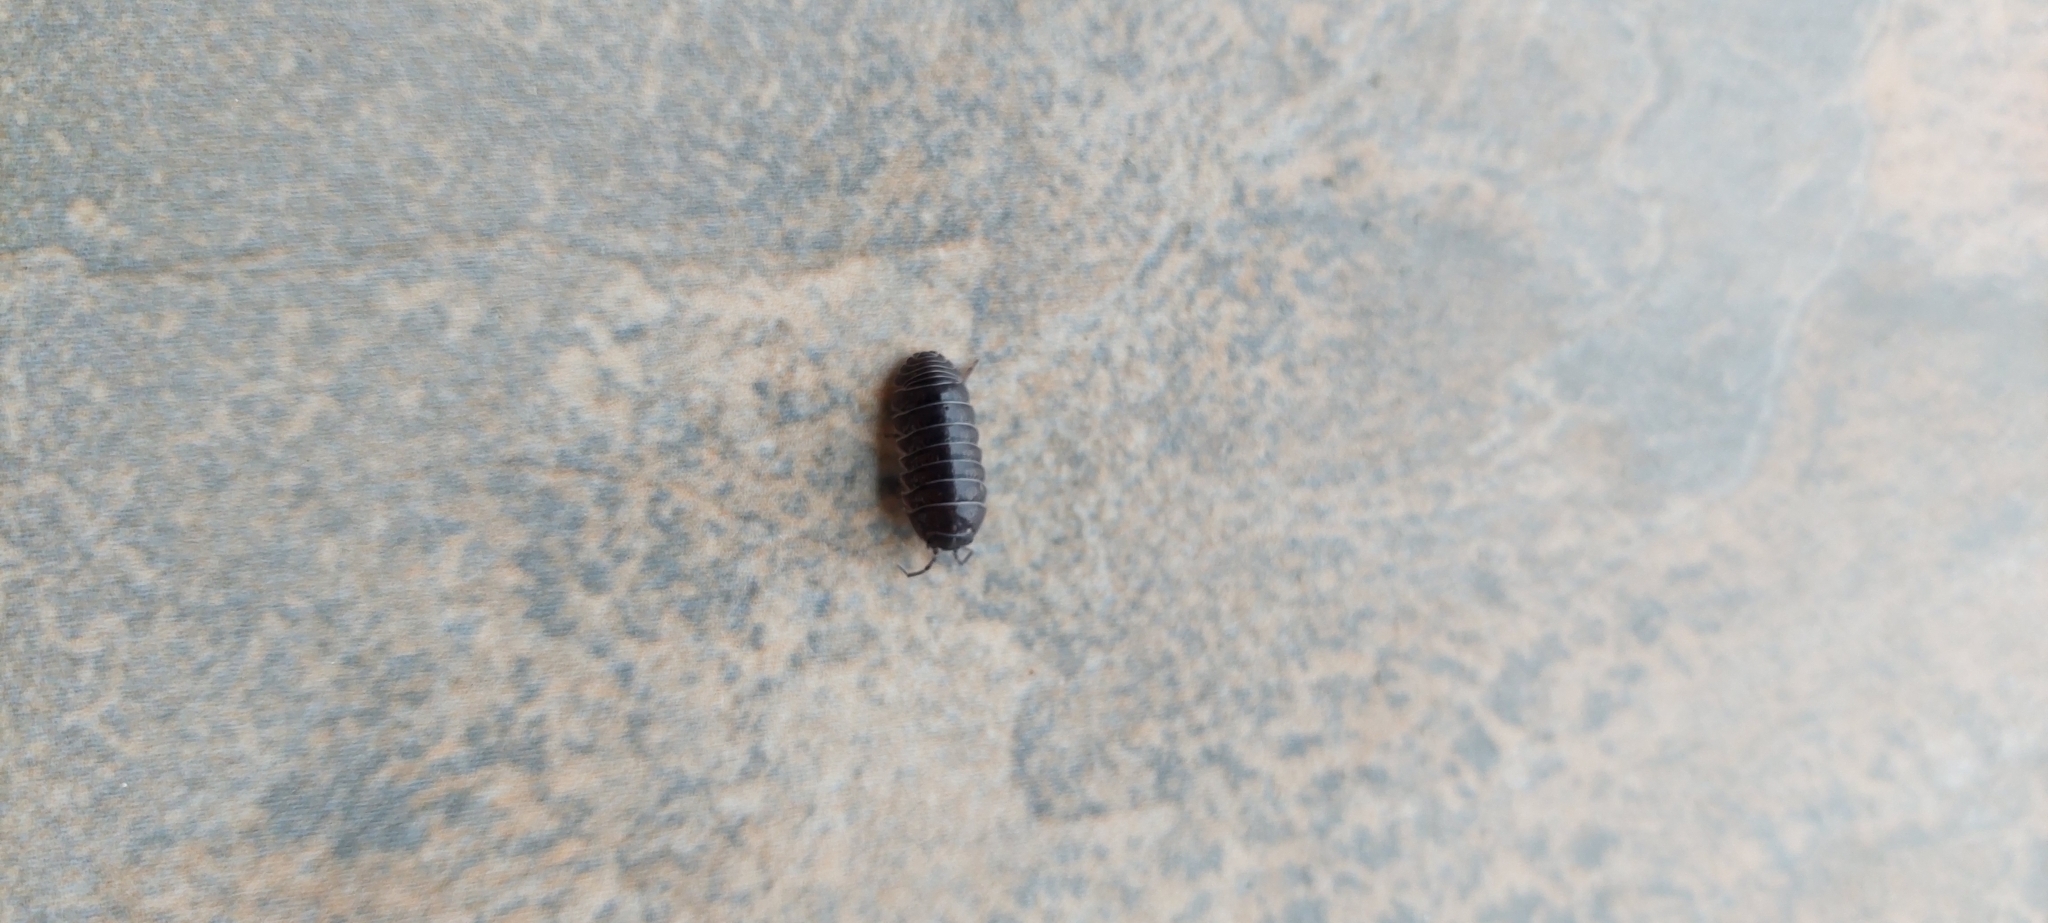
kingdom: Animalia
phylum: Arthropoda
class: Malacostraca
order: Isopoda
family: Armadillidiidae
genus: Armadillidium
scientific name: Armadillidium vulgare
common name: Common pill woodlouse
